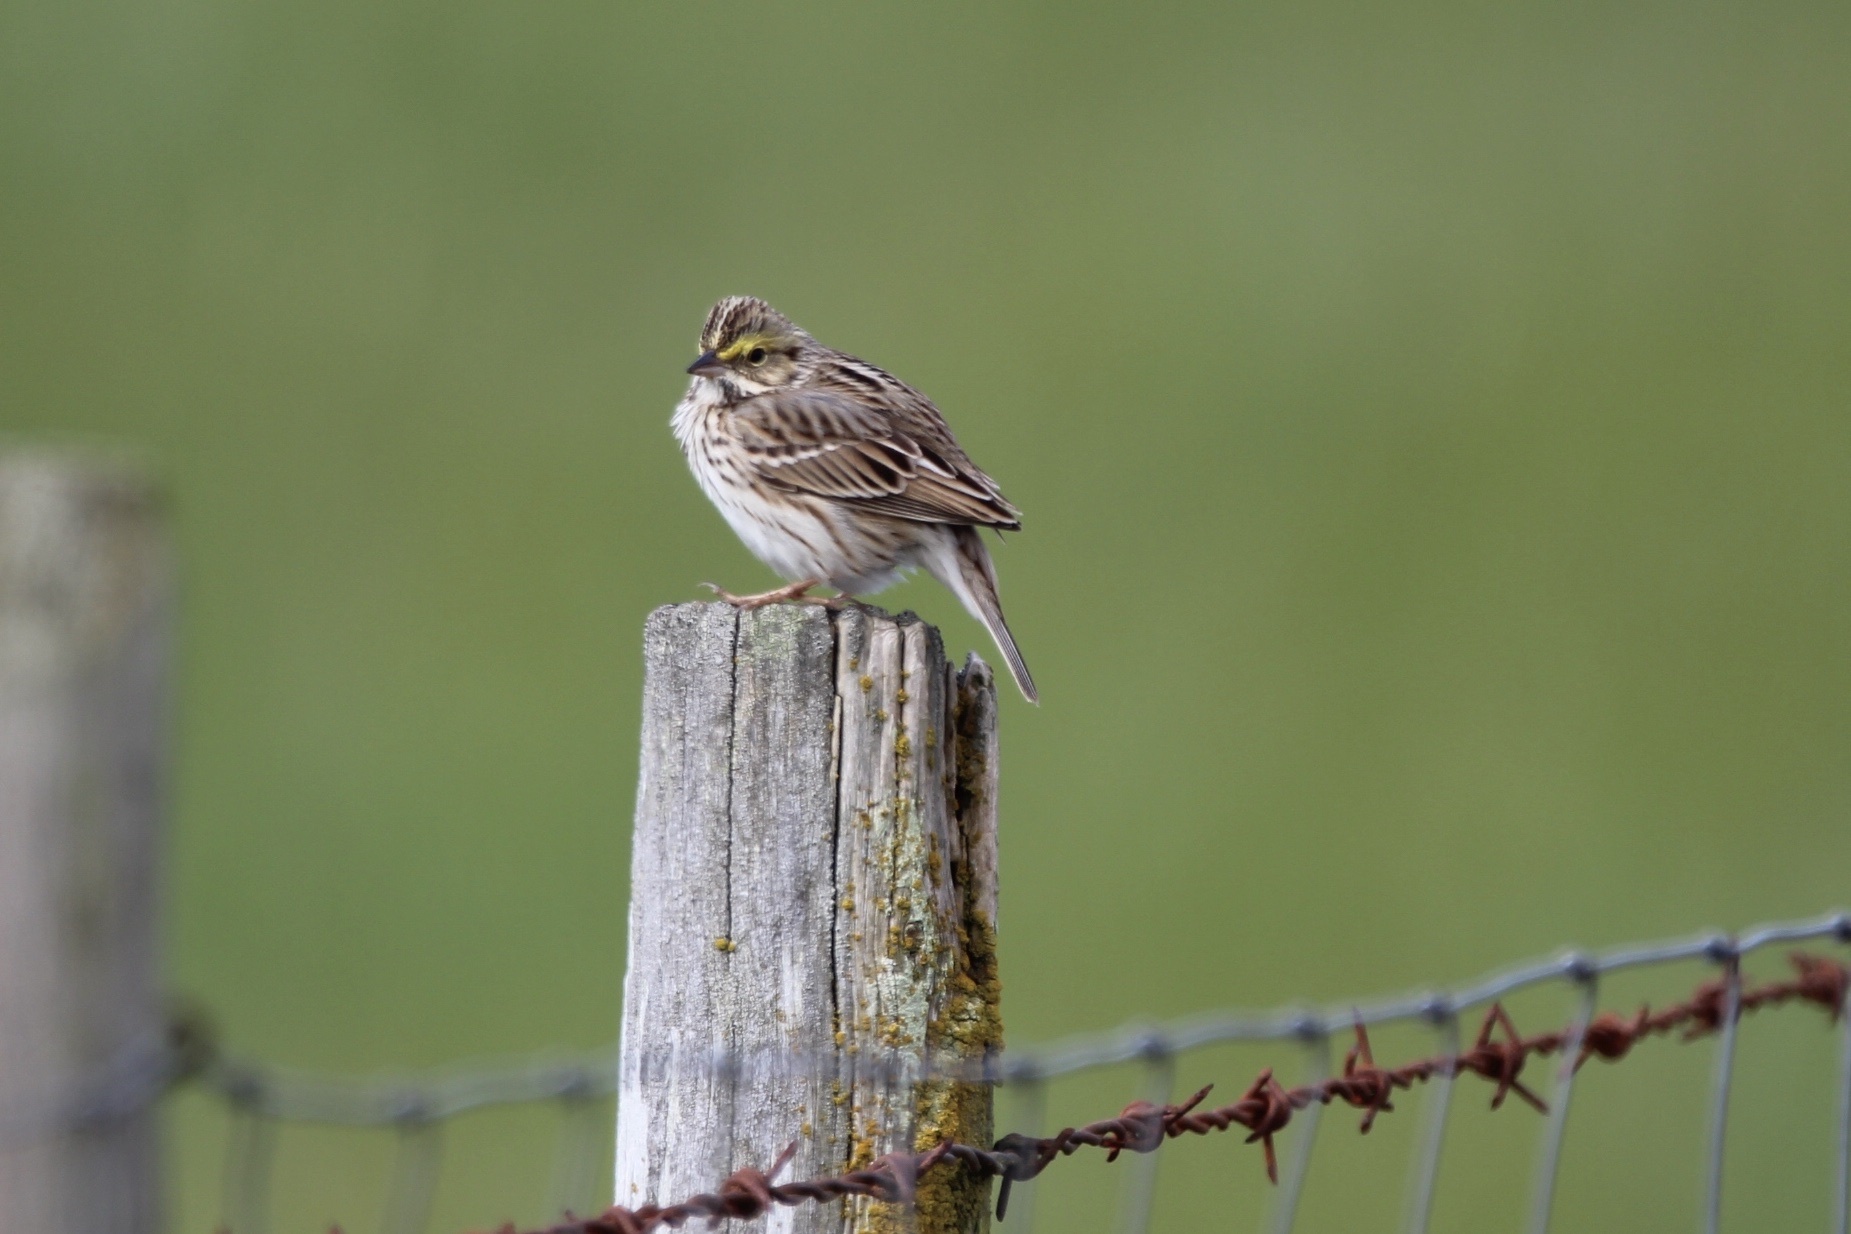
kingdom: Animalia
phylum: Chordata
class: Aves
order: Passeriformes
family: Passerellidae
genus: Passerculus
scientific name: Passerculus sandwichensis
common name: Savannah sparrow
